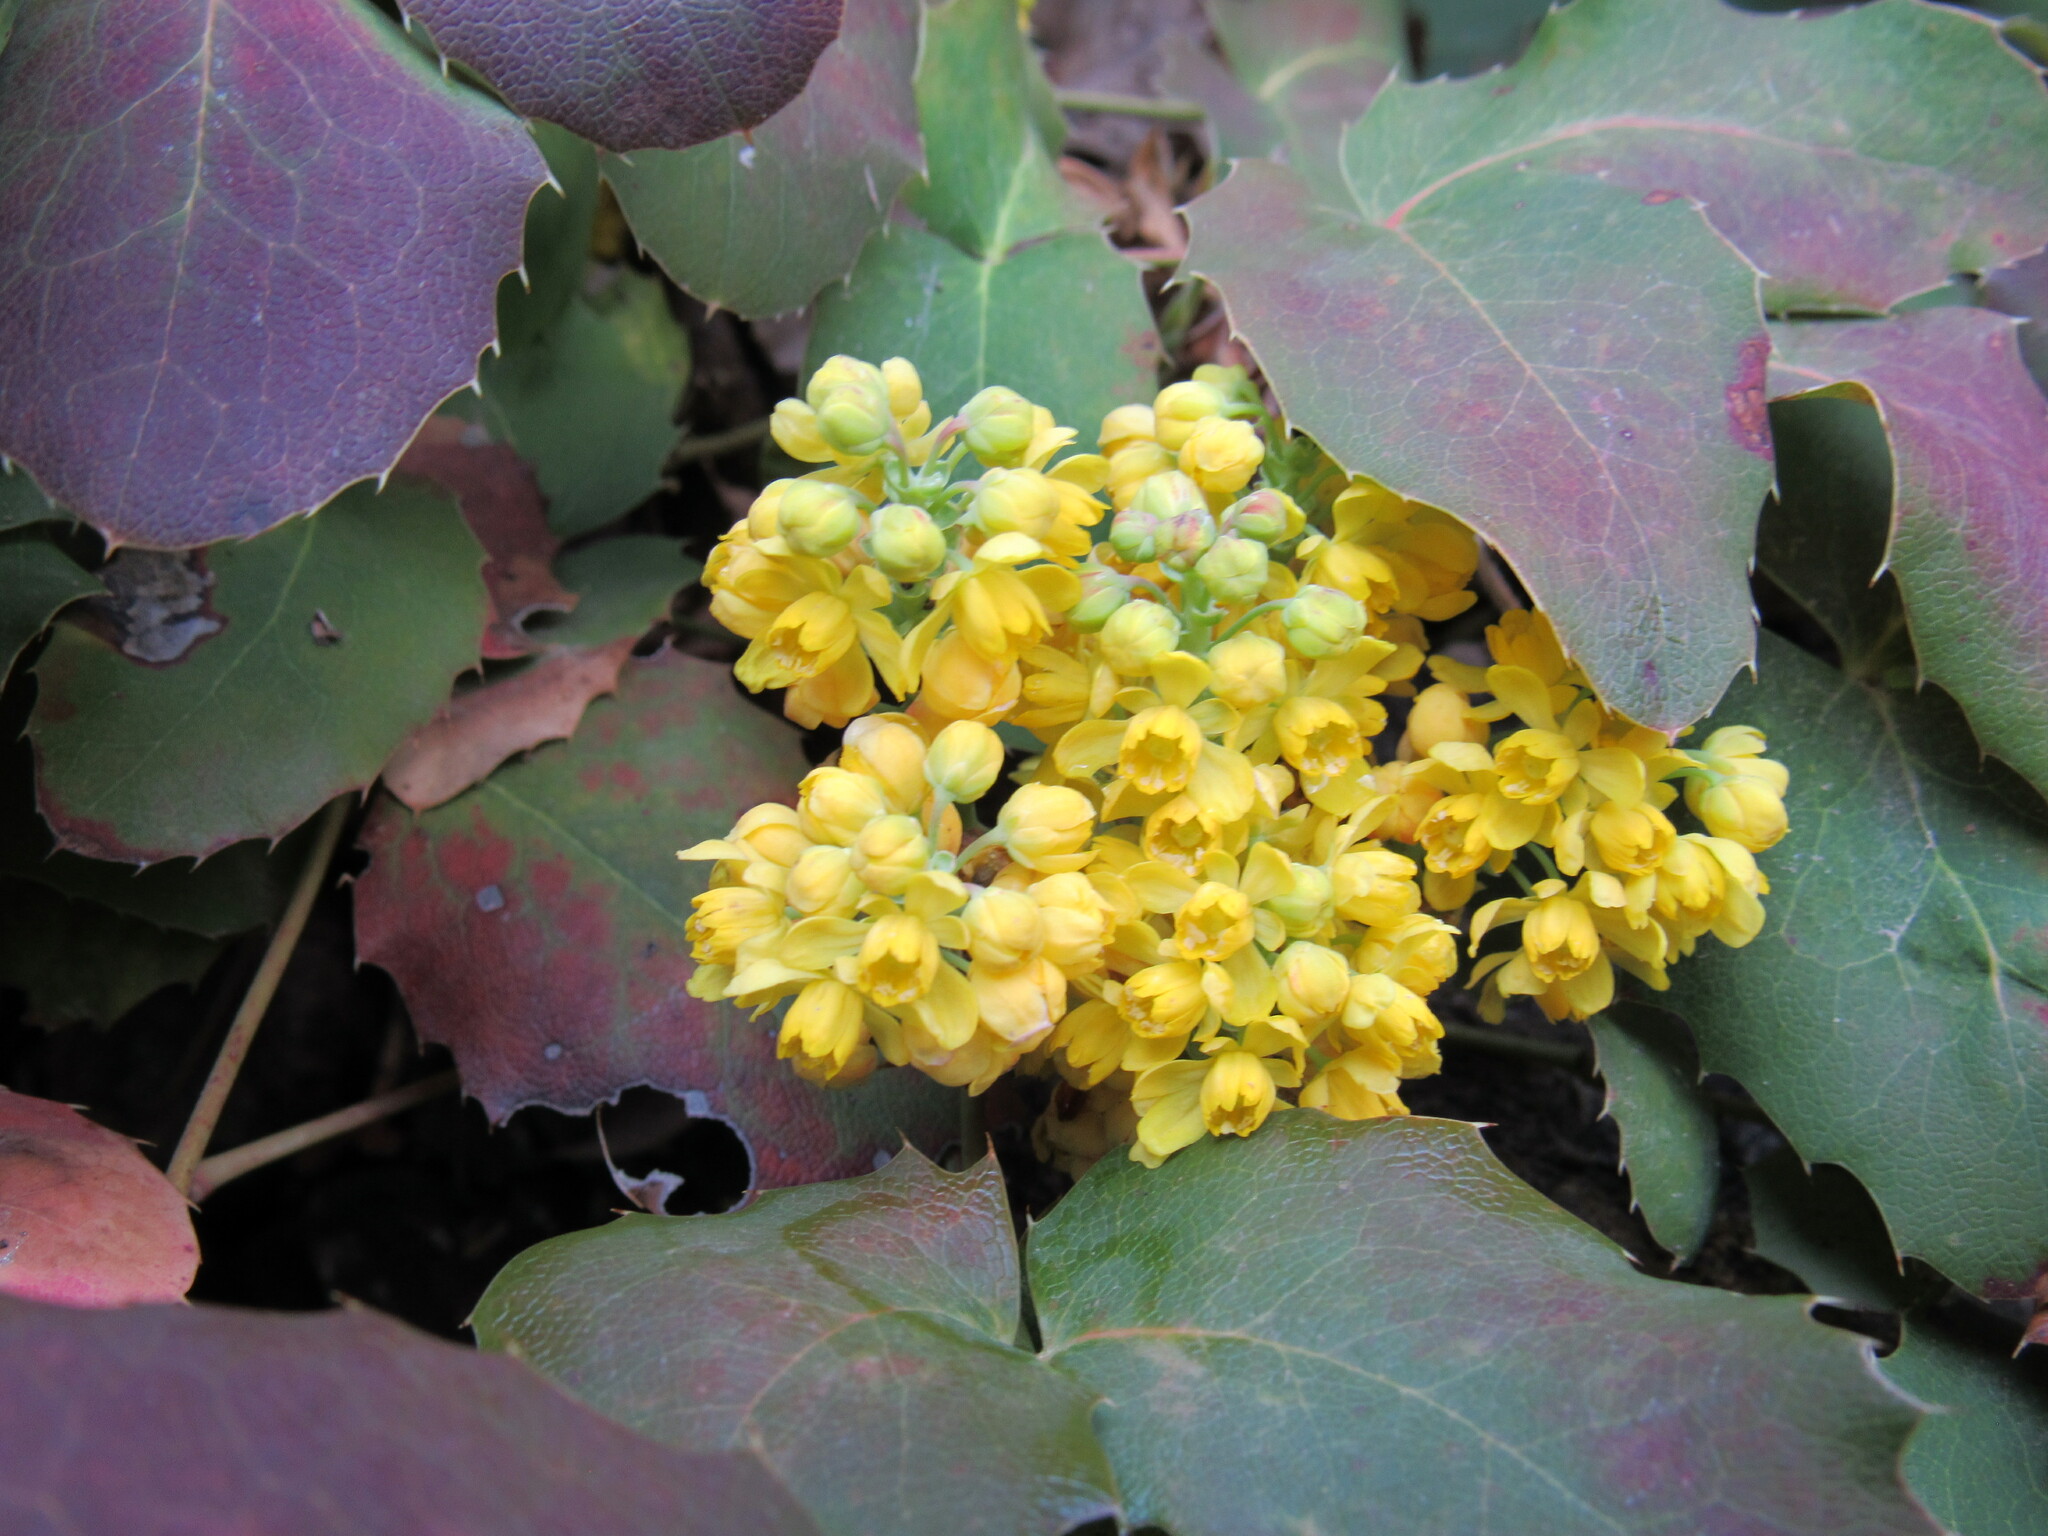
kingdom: Plantae
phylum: Tracheophyta
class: Magnoliopsida
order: Ranunculales
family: Berberidaceae
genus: Mahonia
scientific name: Mahonia repens
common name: Creeping oregon-grape
